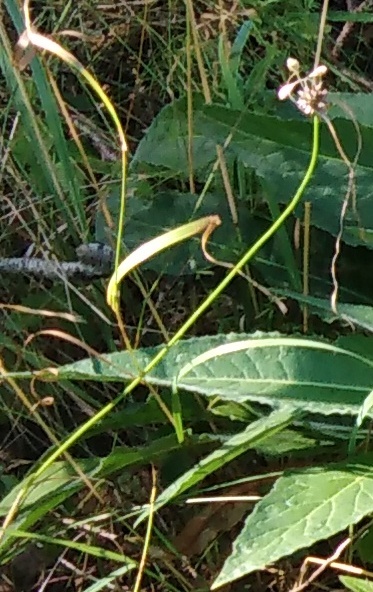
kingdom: Plantae
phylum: Tracheophyta
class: Liliopsida
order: Asparagales
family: Amaryllidaceae
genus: Allium
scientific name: Allium oleraceum
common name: Field garlic
